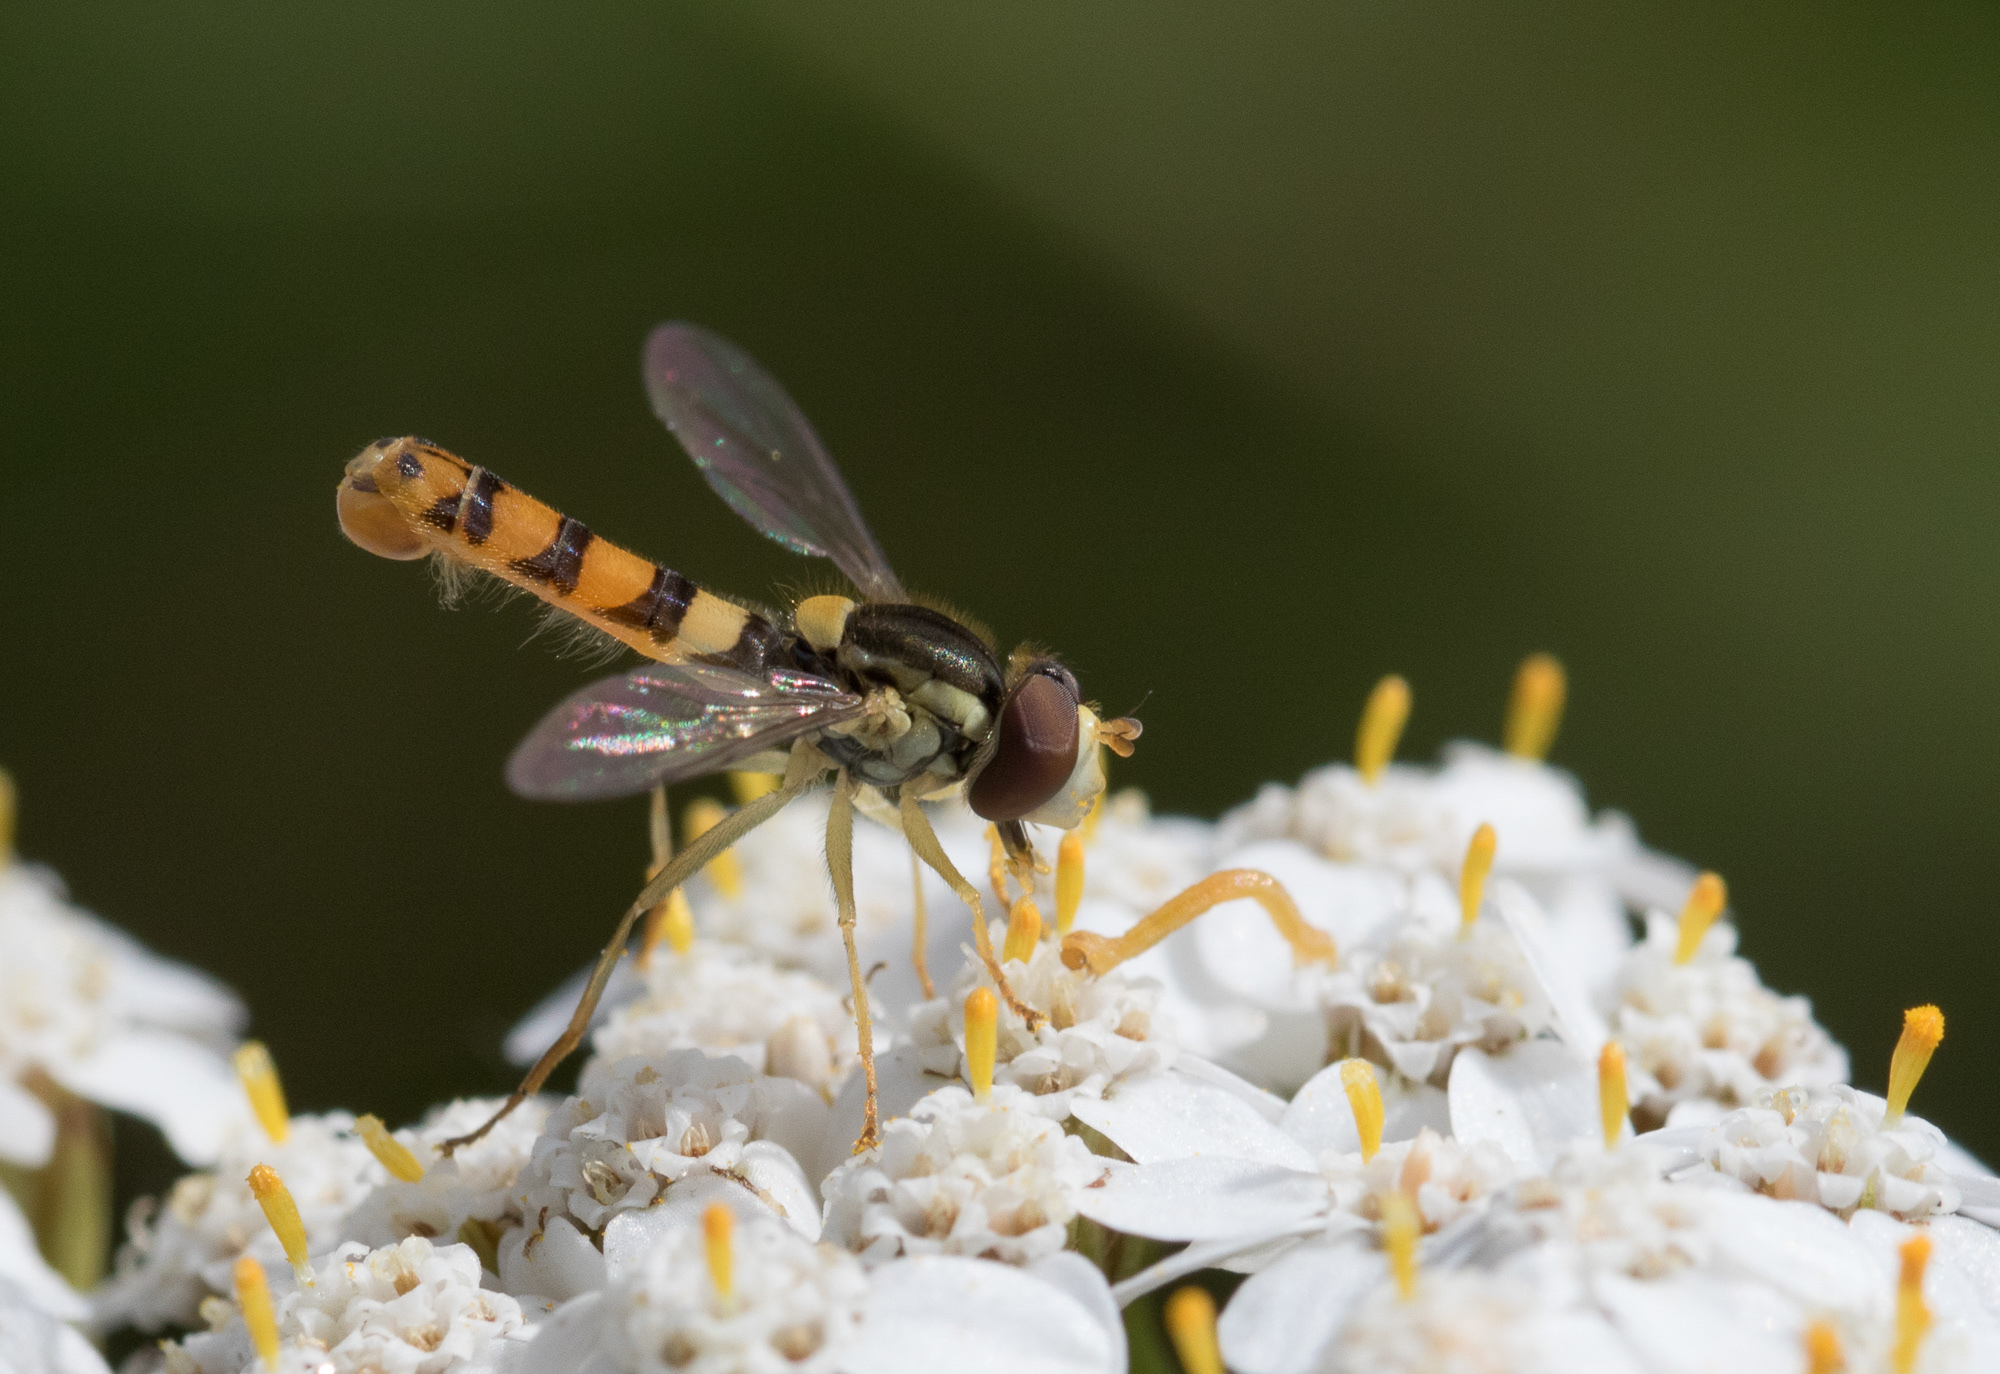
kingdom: Animalia
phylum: Arthropoda
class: Insecta
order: Diptera
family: Syrphidae
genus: Sphaerophoria
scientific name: Sphaerophoria
